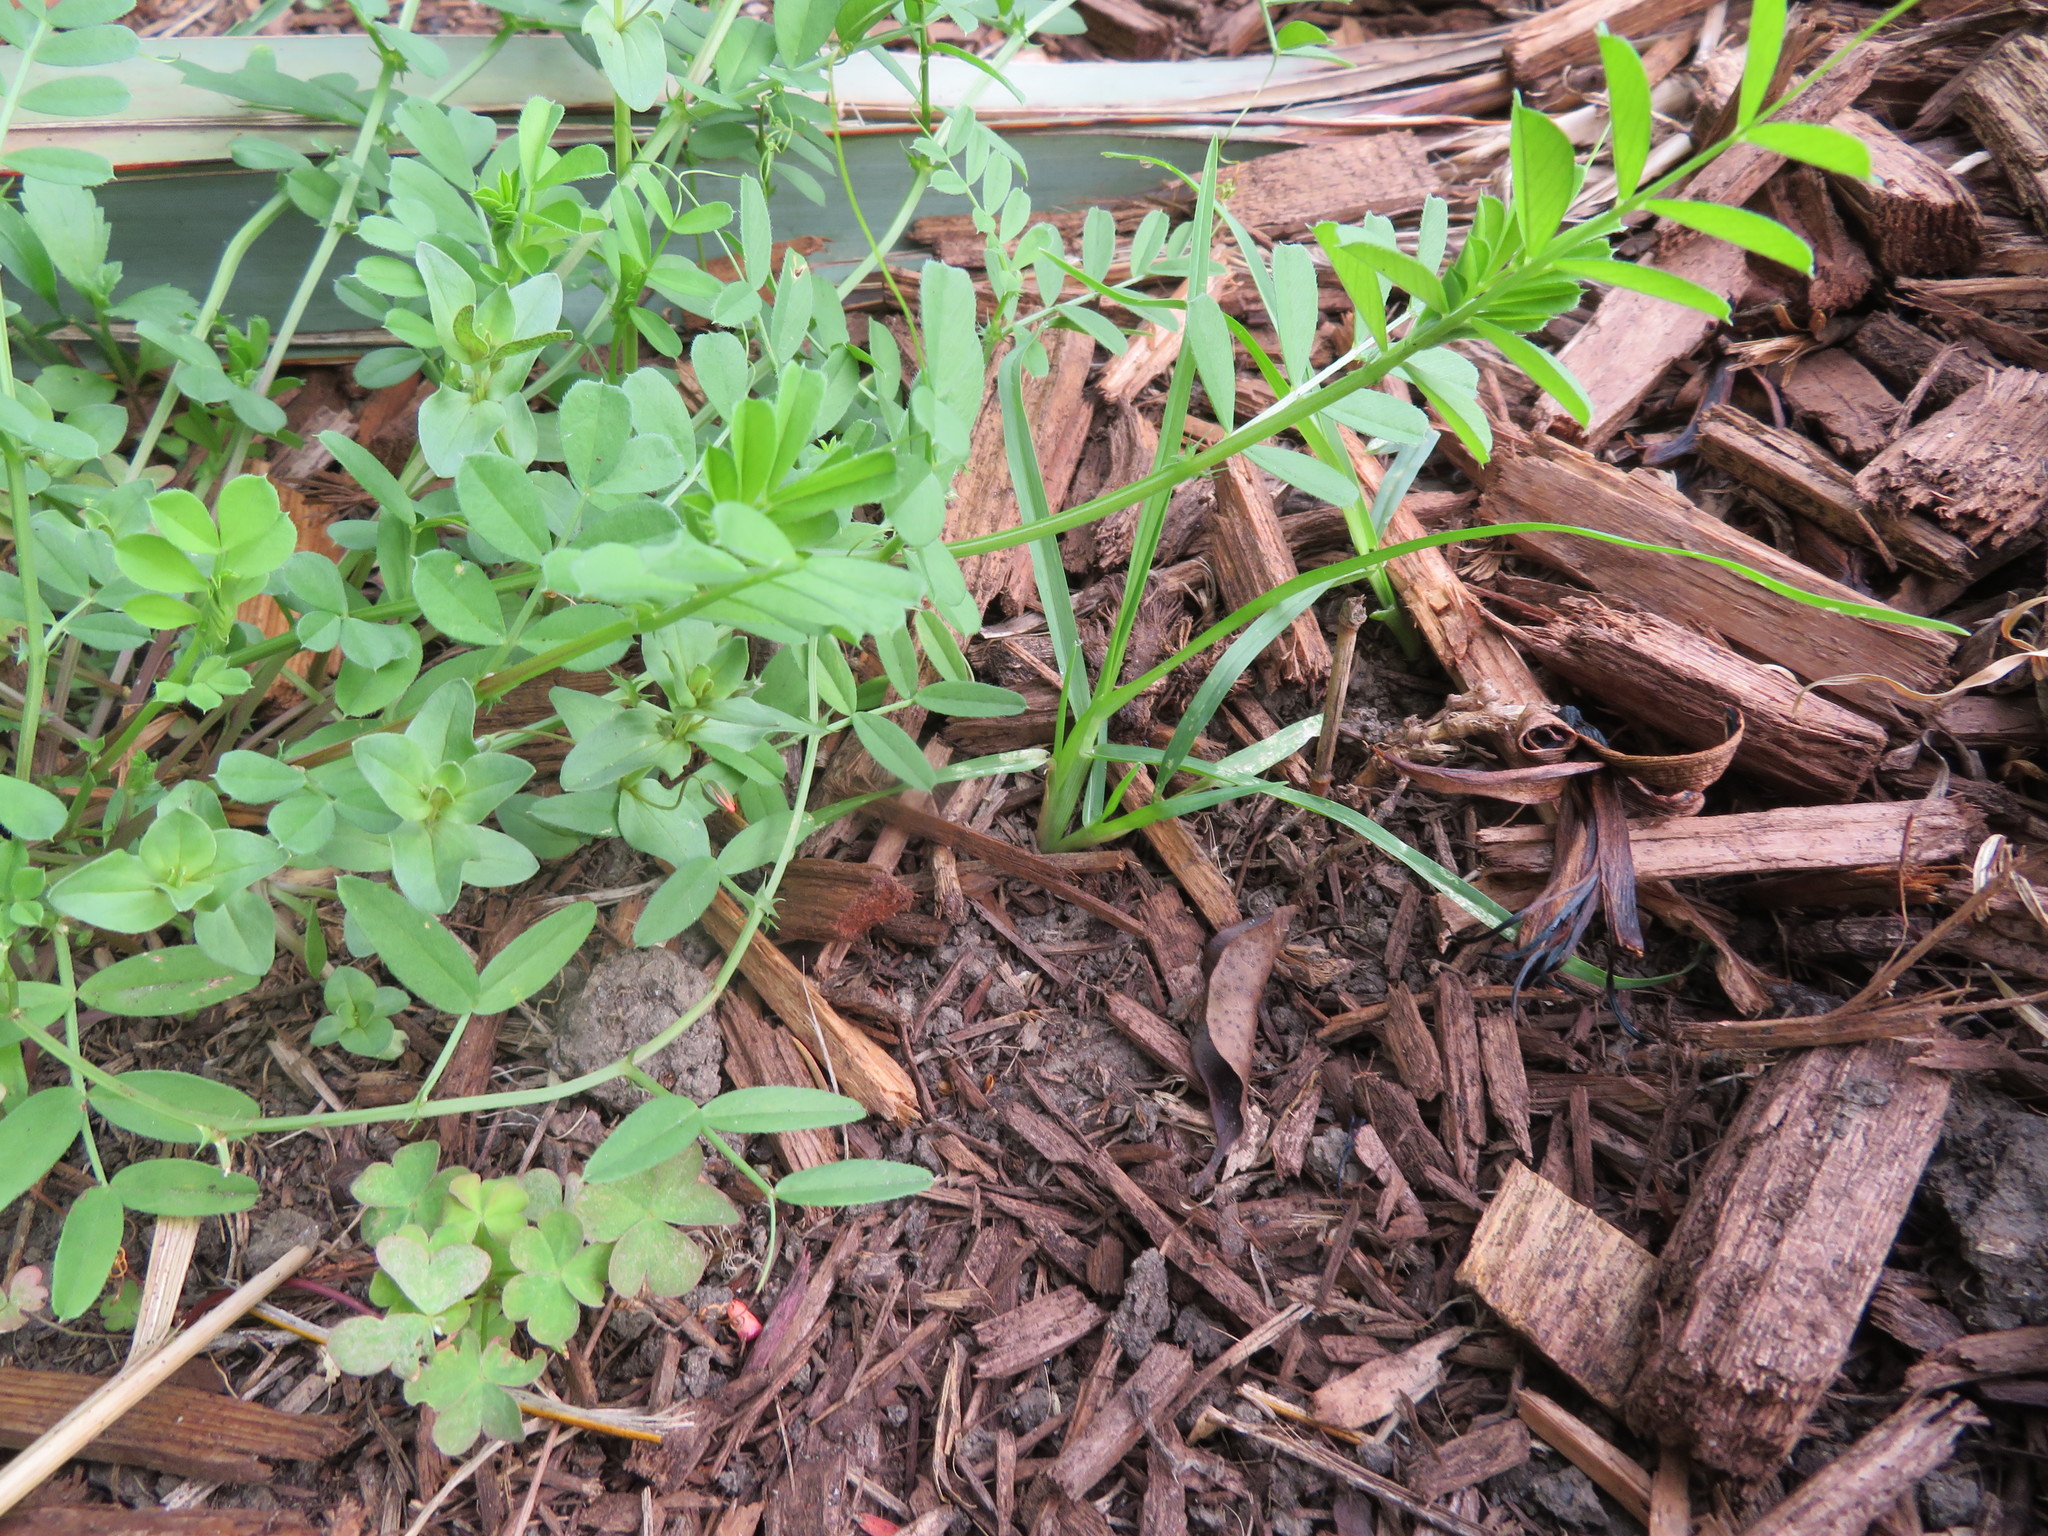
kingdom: Plantae
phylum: Tracheophyta
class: Magnoliopsida
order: Ericales
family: Primulaceae
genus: Lysimachia
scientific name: Lysimachia arvensis
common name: Scarlet pimpernel
